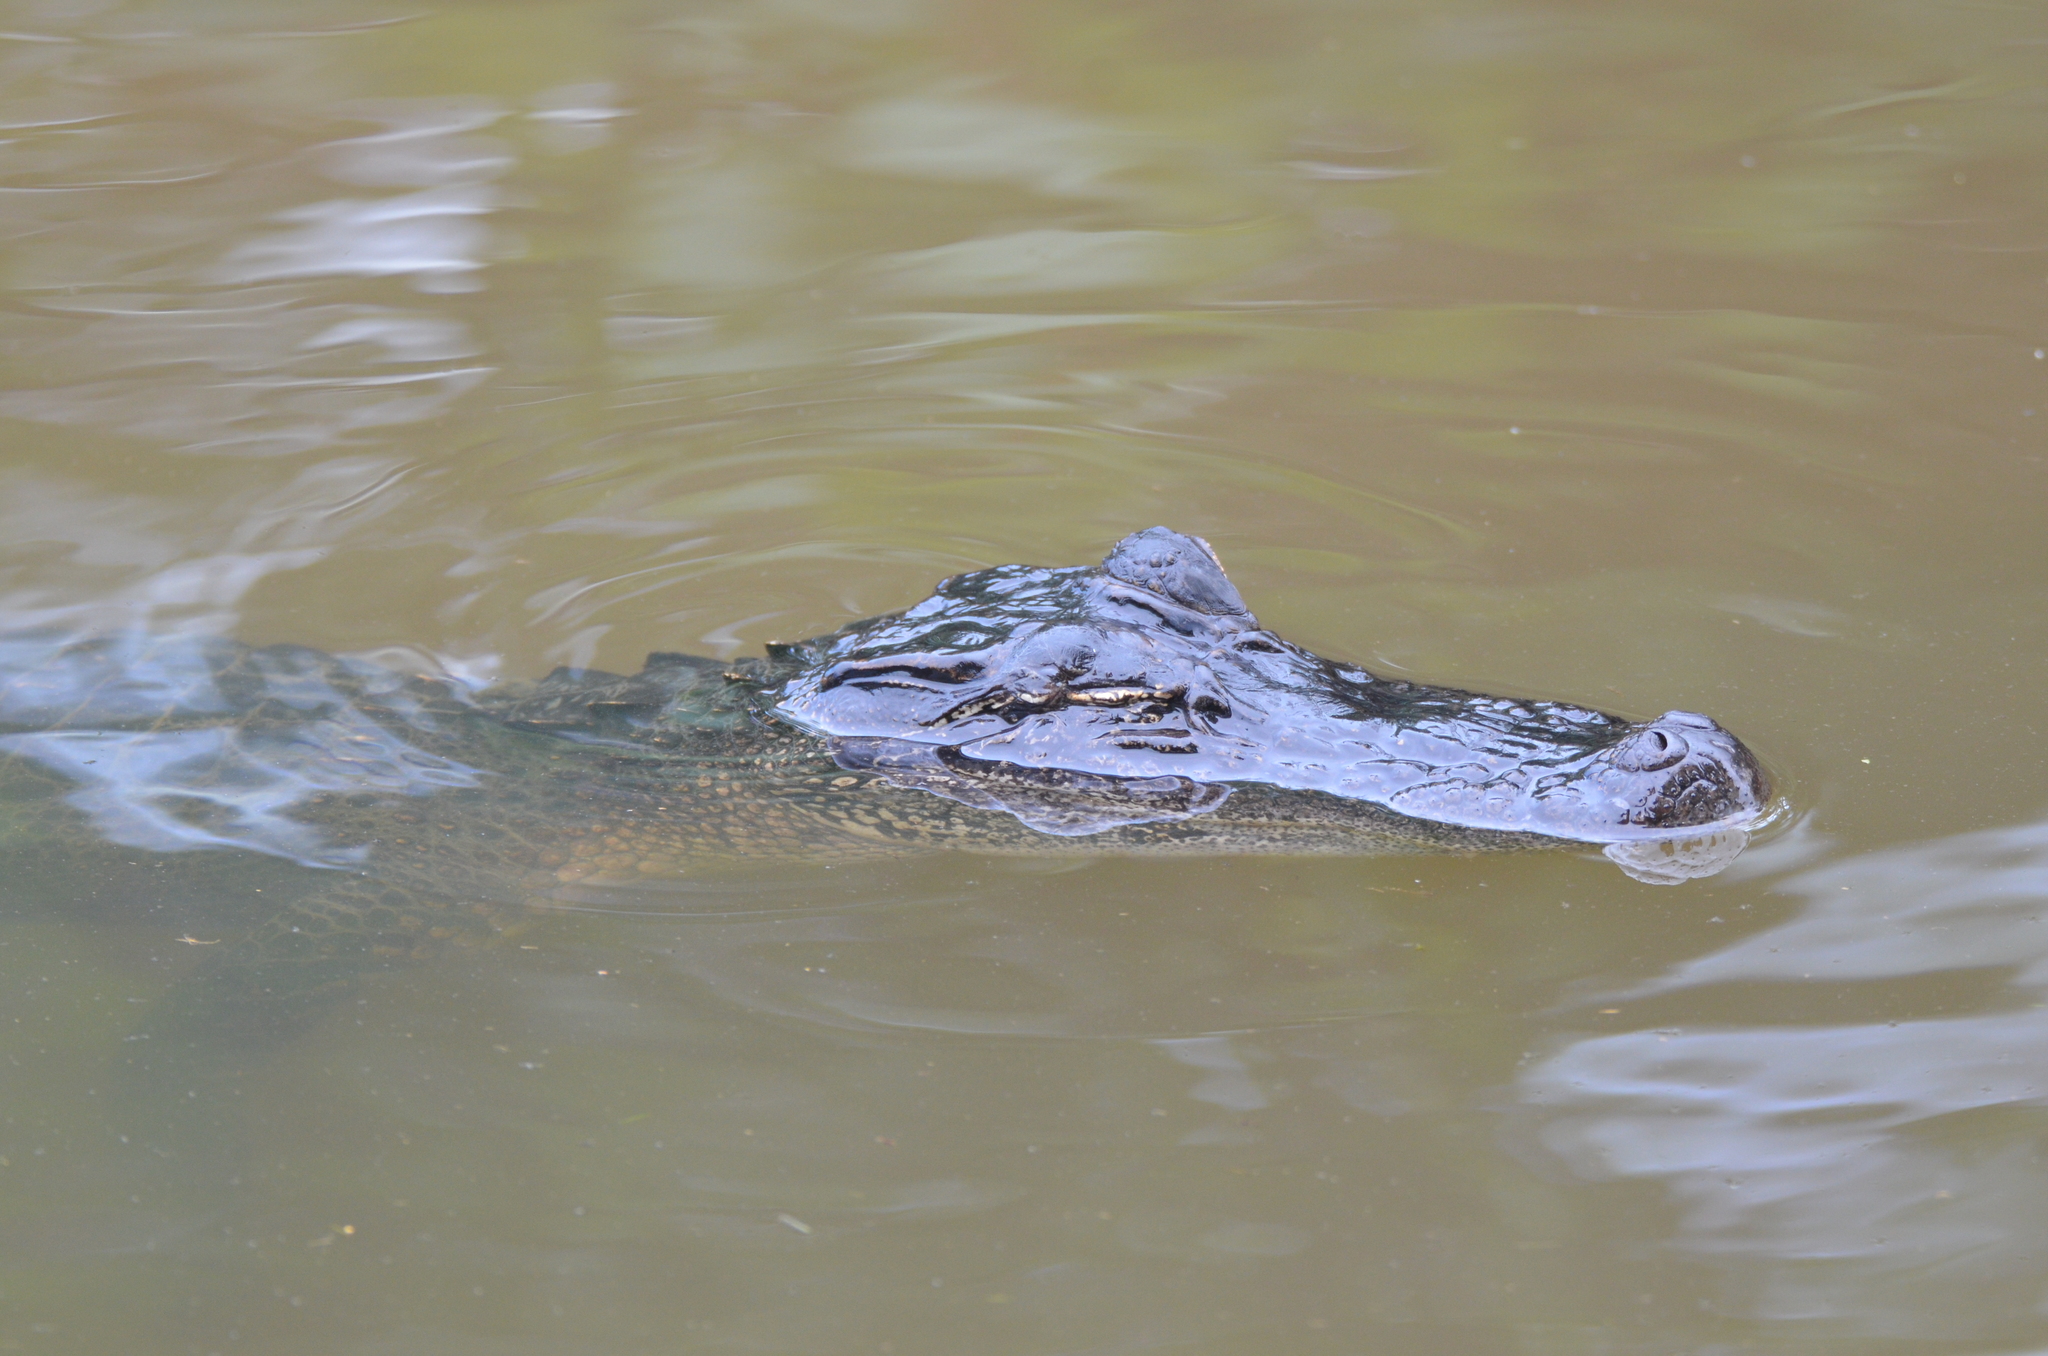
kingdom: Animalia
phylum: Chordata
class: Crocodylia
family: Alligatoridae
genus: Alligator
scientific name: Alligator mississippiensis
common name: American alligator
